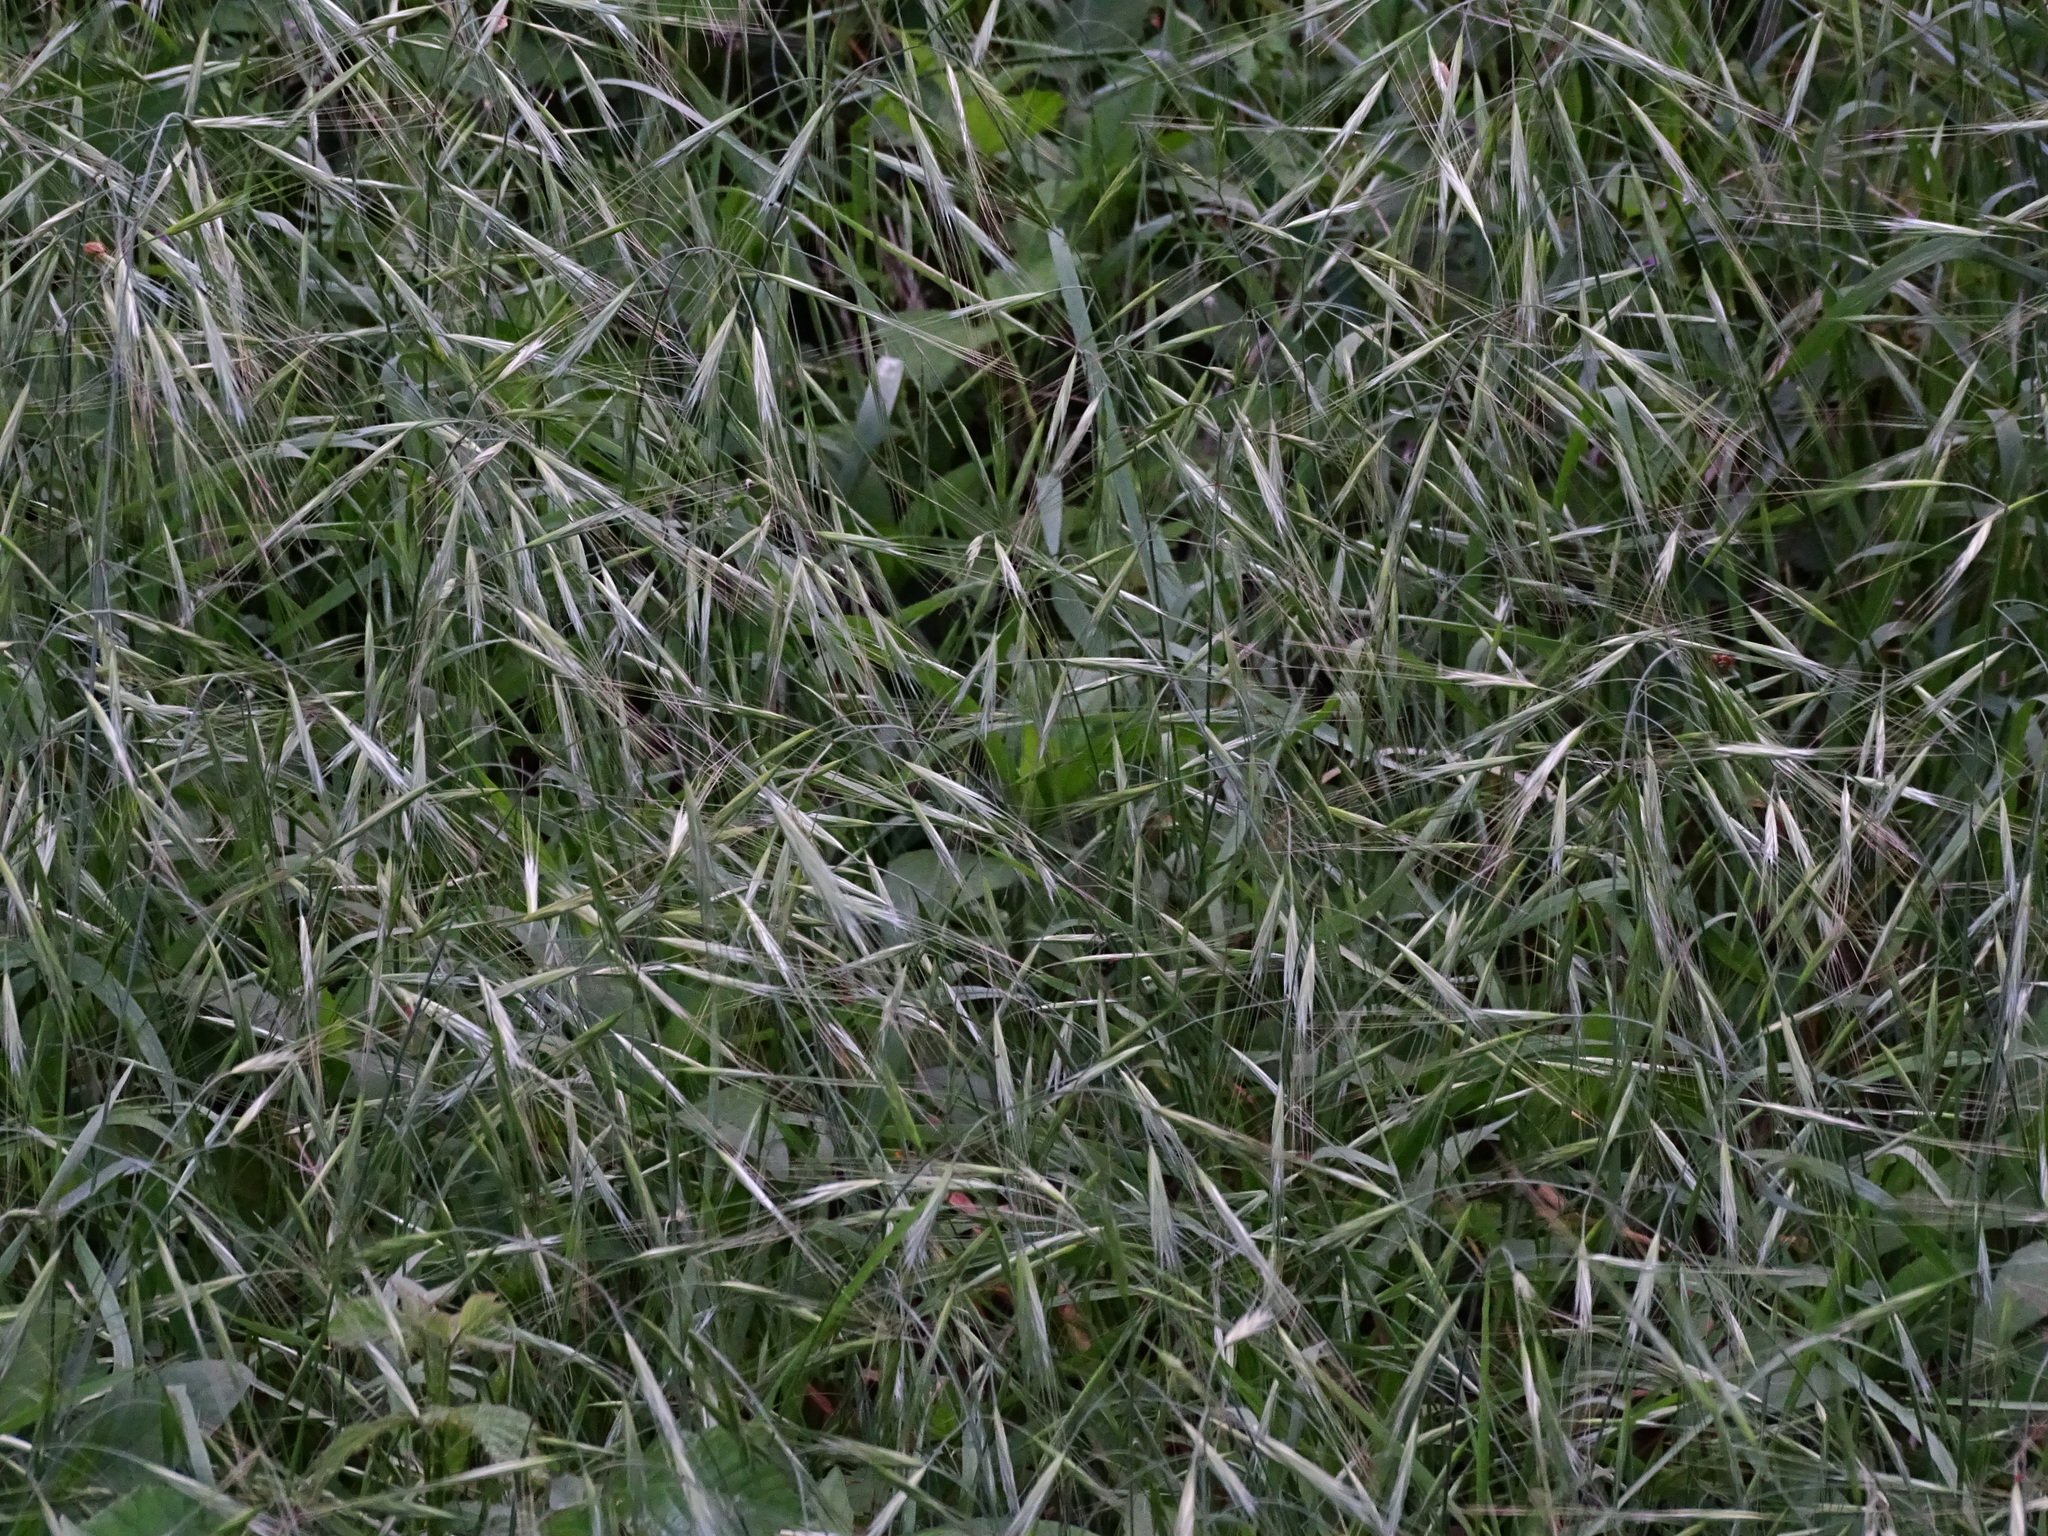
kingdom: Plantae
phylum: Tracheophyta
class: Liliopsida
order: Poales
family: Poaceae
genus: Bromus
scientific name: Bromus sterilis
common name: Poverty brome
